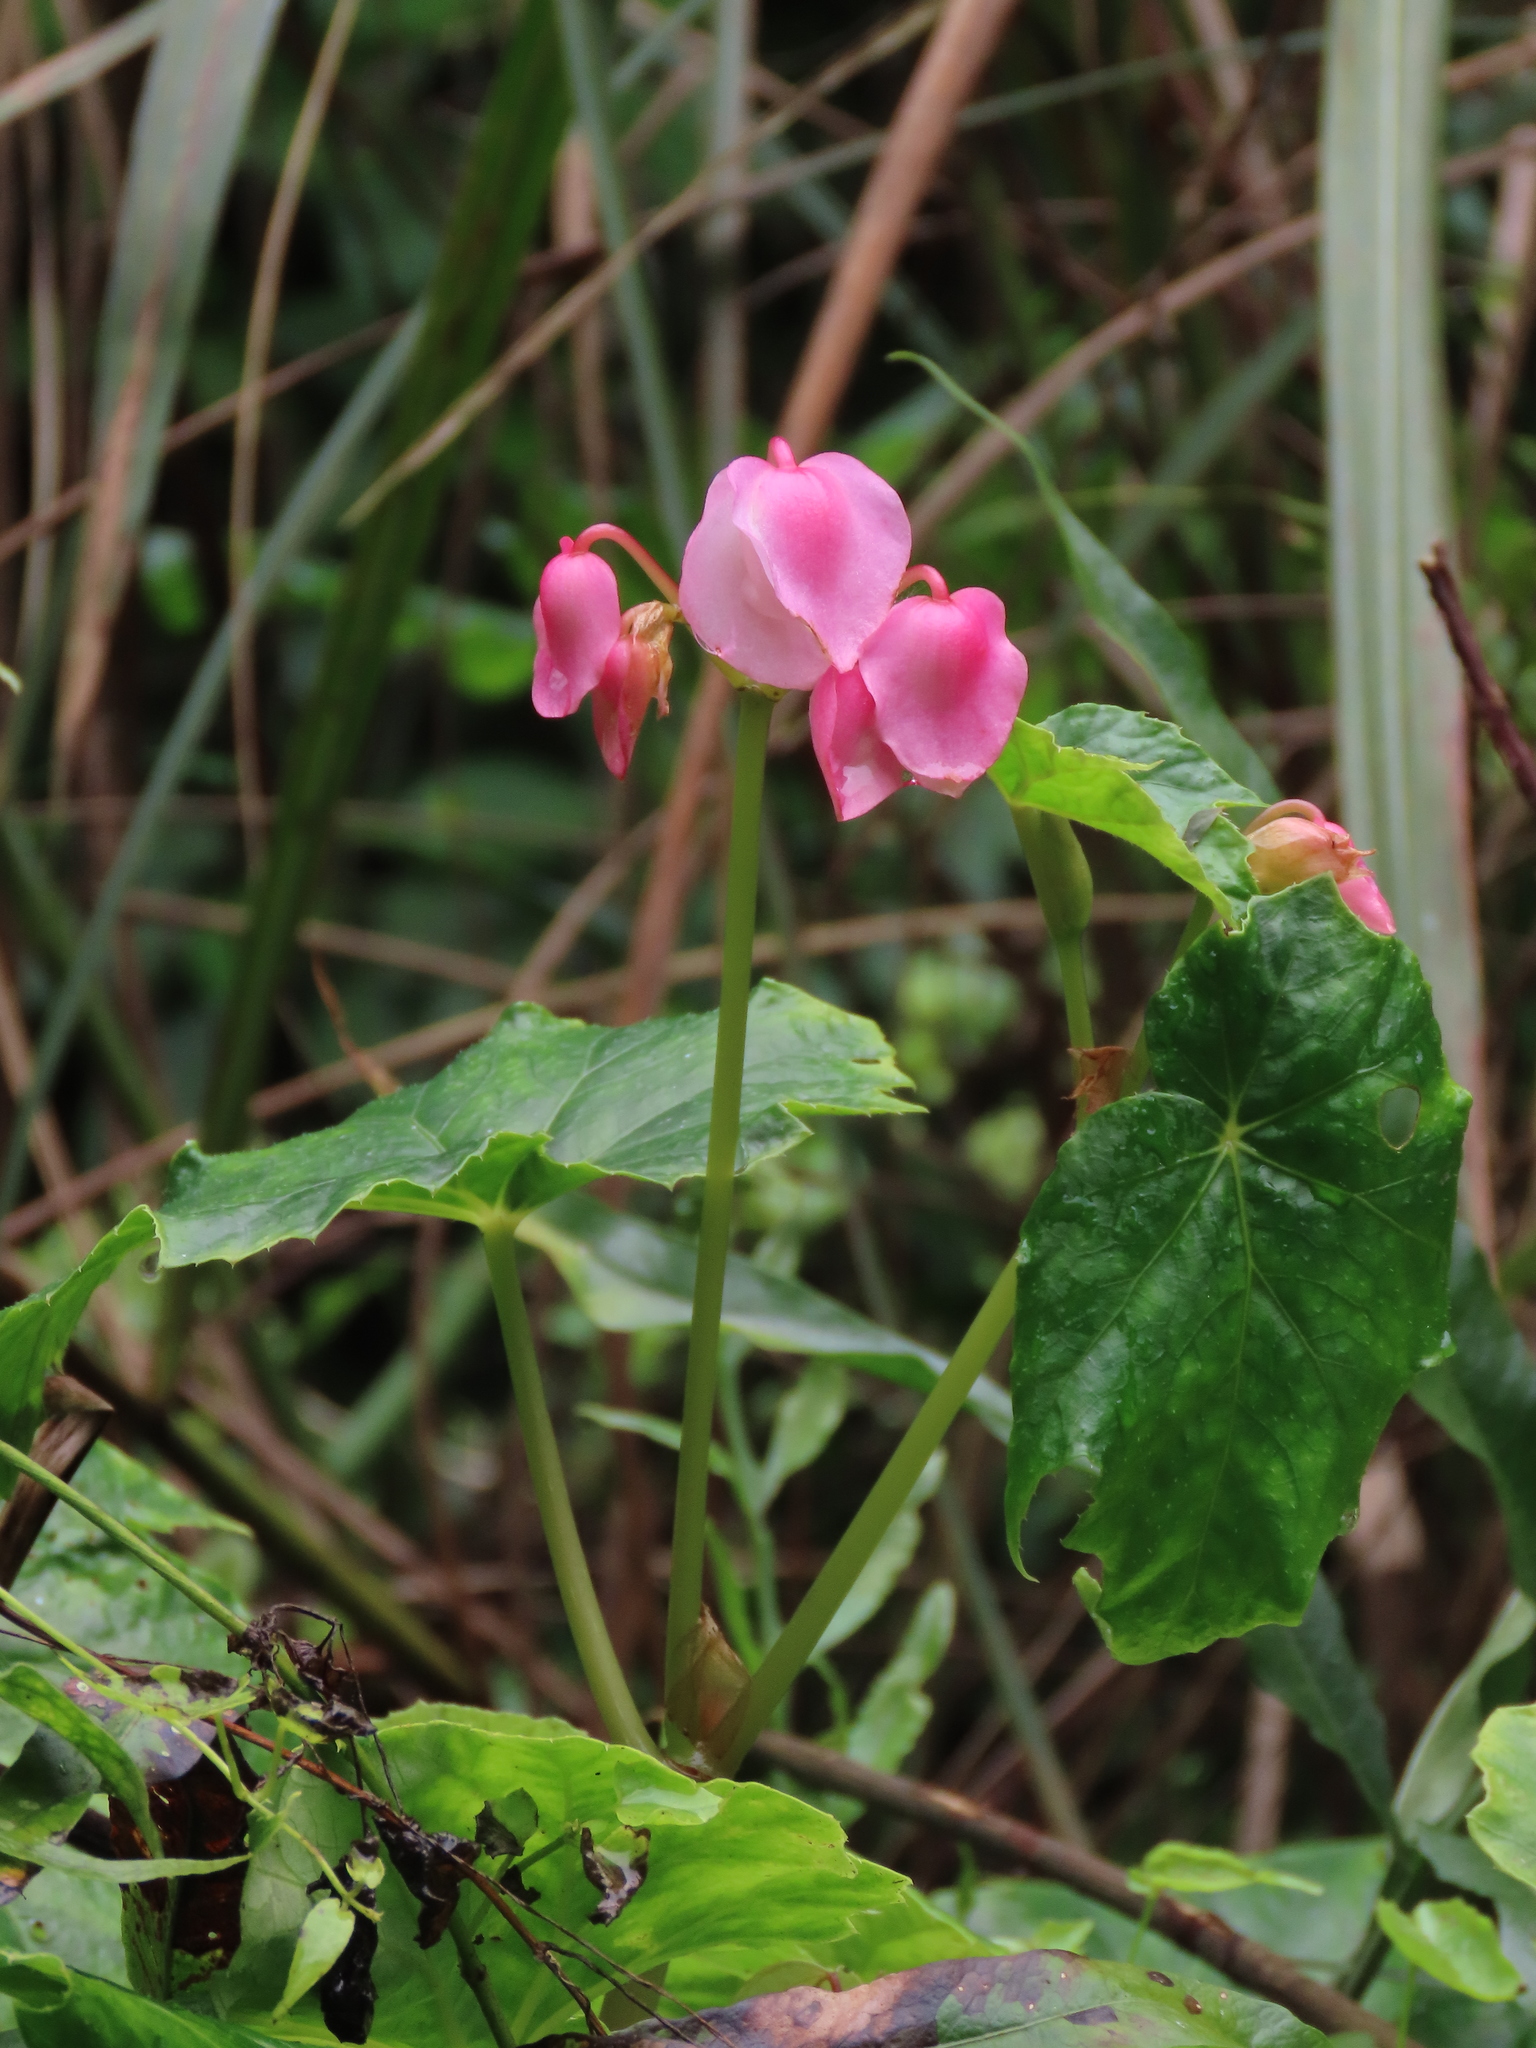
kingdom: Plantae
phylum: Tracheophyta
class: Magnoliopsida
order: Cucurbitales
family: Begoniaceae
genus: Begonia
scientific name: Begonia formosana
